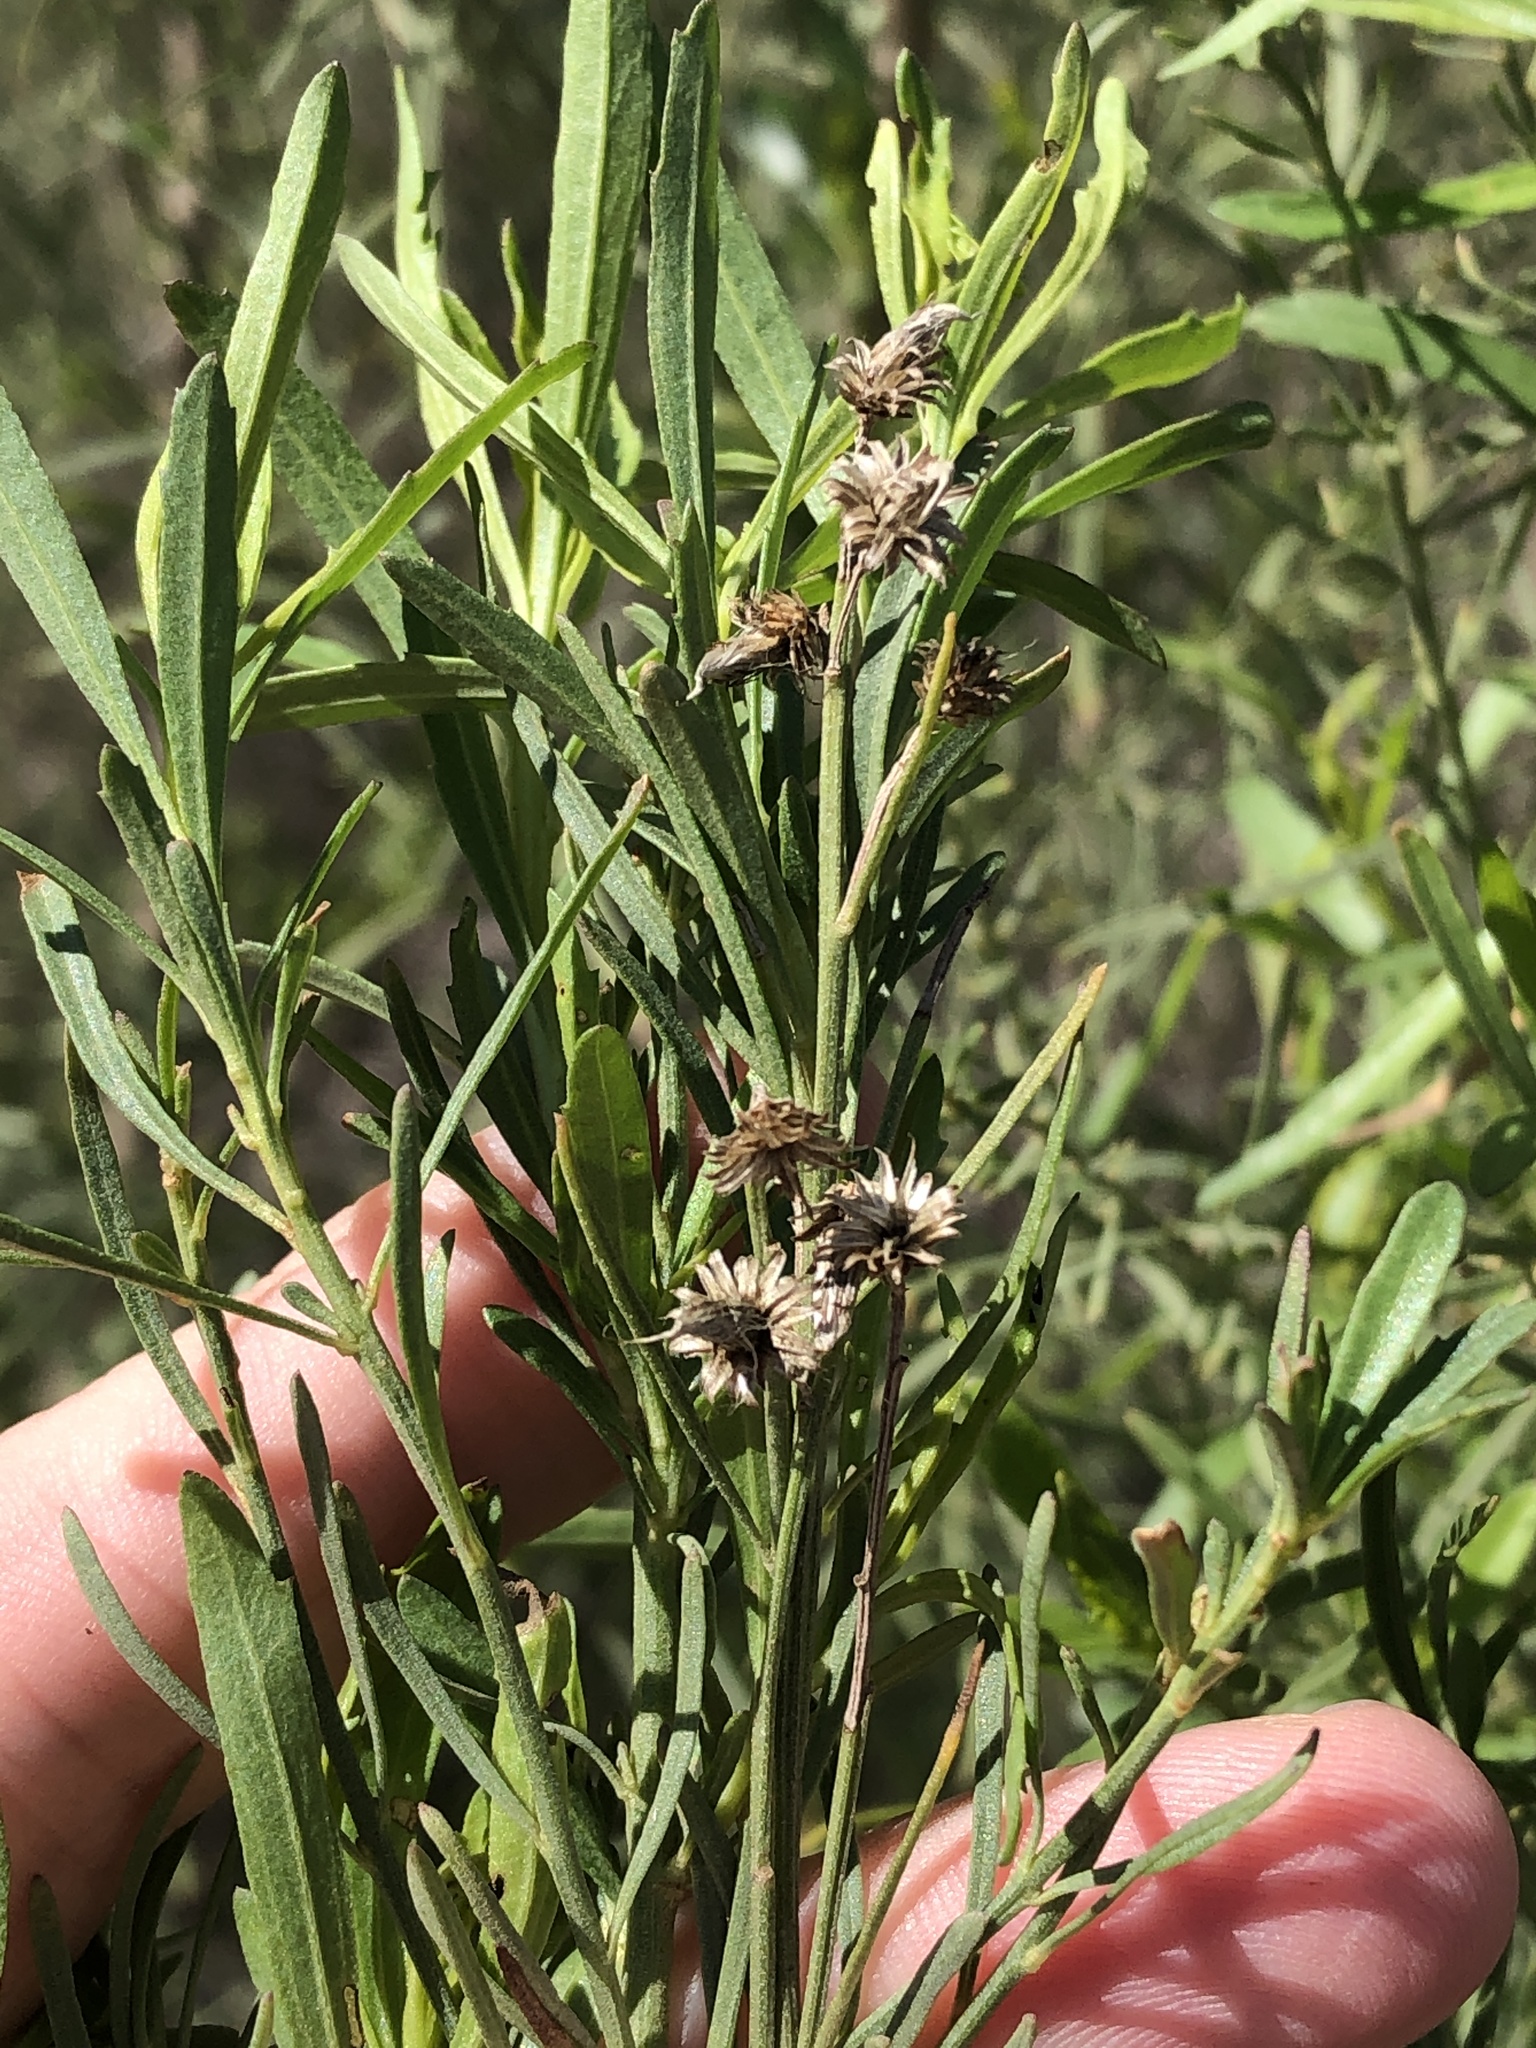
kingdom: Plantae
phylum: Tracheophyta
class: Magnoliopsida
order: Asterales
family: Asteraceae
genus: Baccharis
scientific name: Baccharis neglecta
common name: Roosevelt-weed
